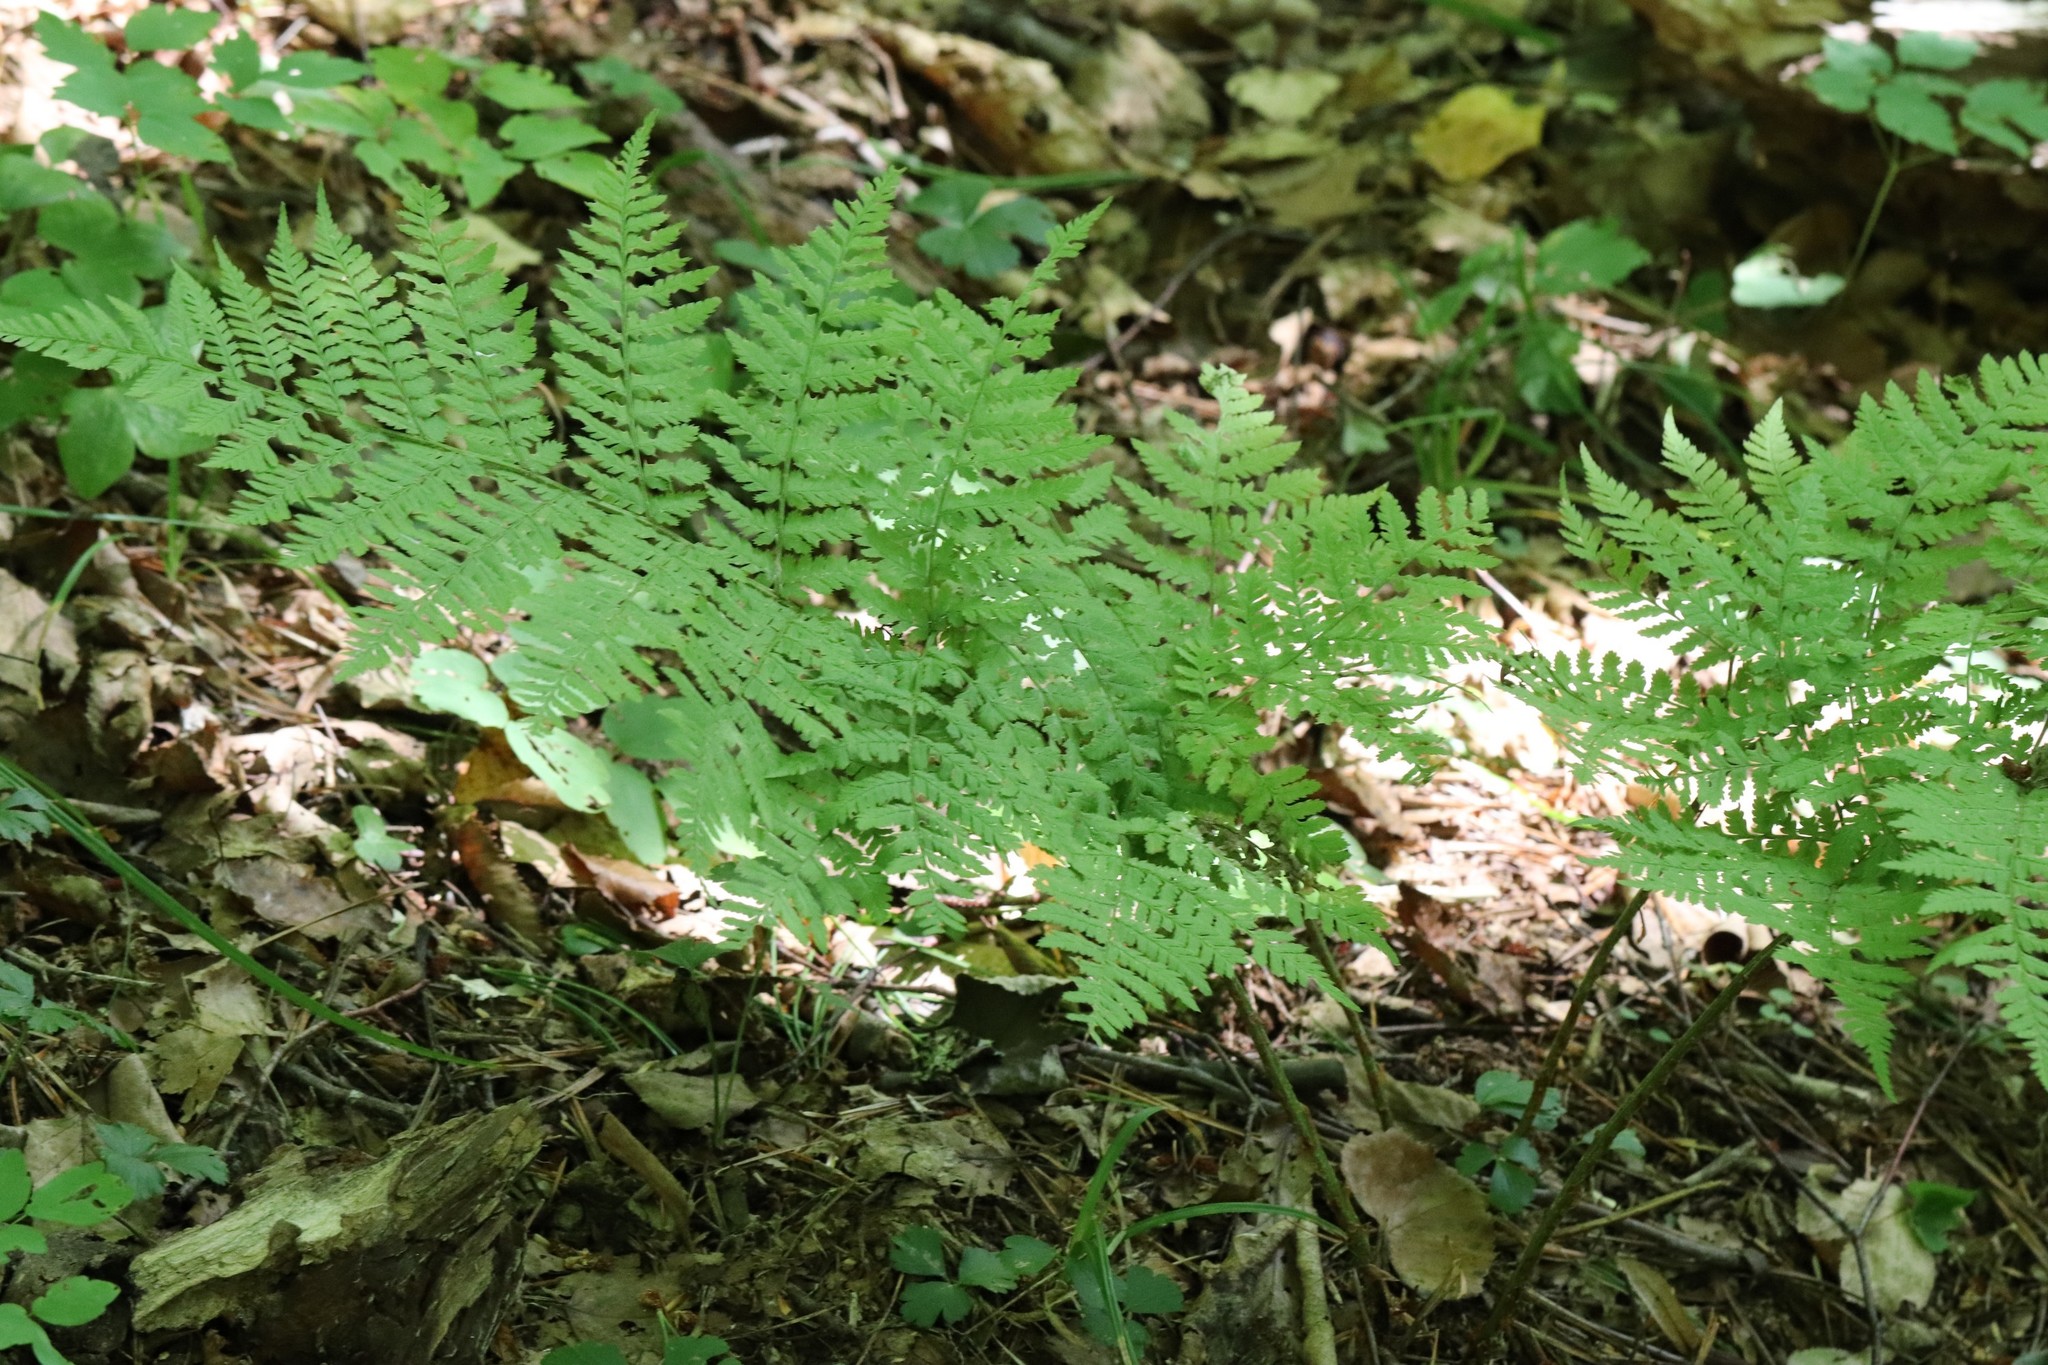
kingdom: Plantae
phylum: Tracheophyta
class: Polypodiopsida
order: Polypodiales
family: Dryopteridaceae
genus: Dryopteris
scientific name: Dryopteris expansa
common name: Northern buckler fern
